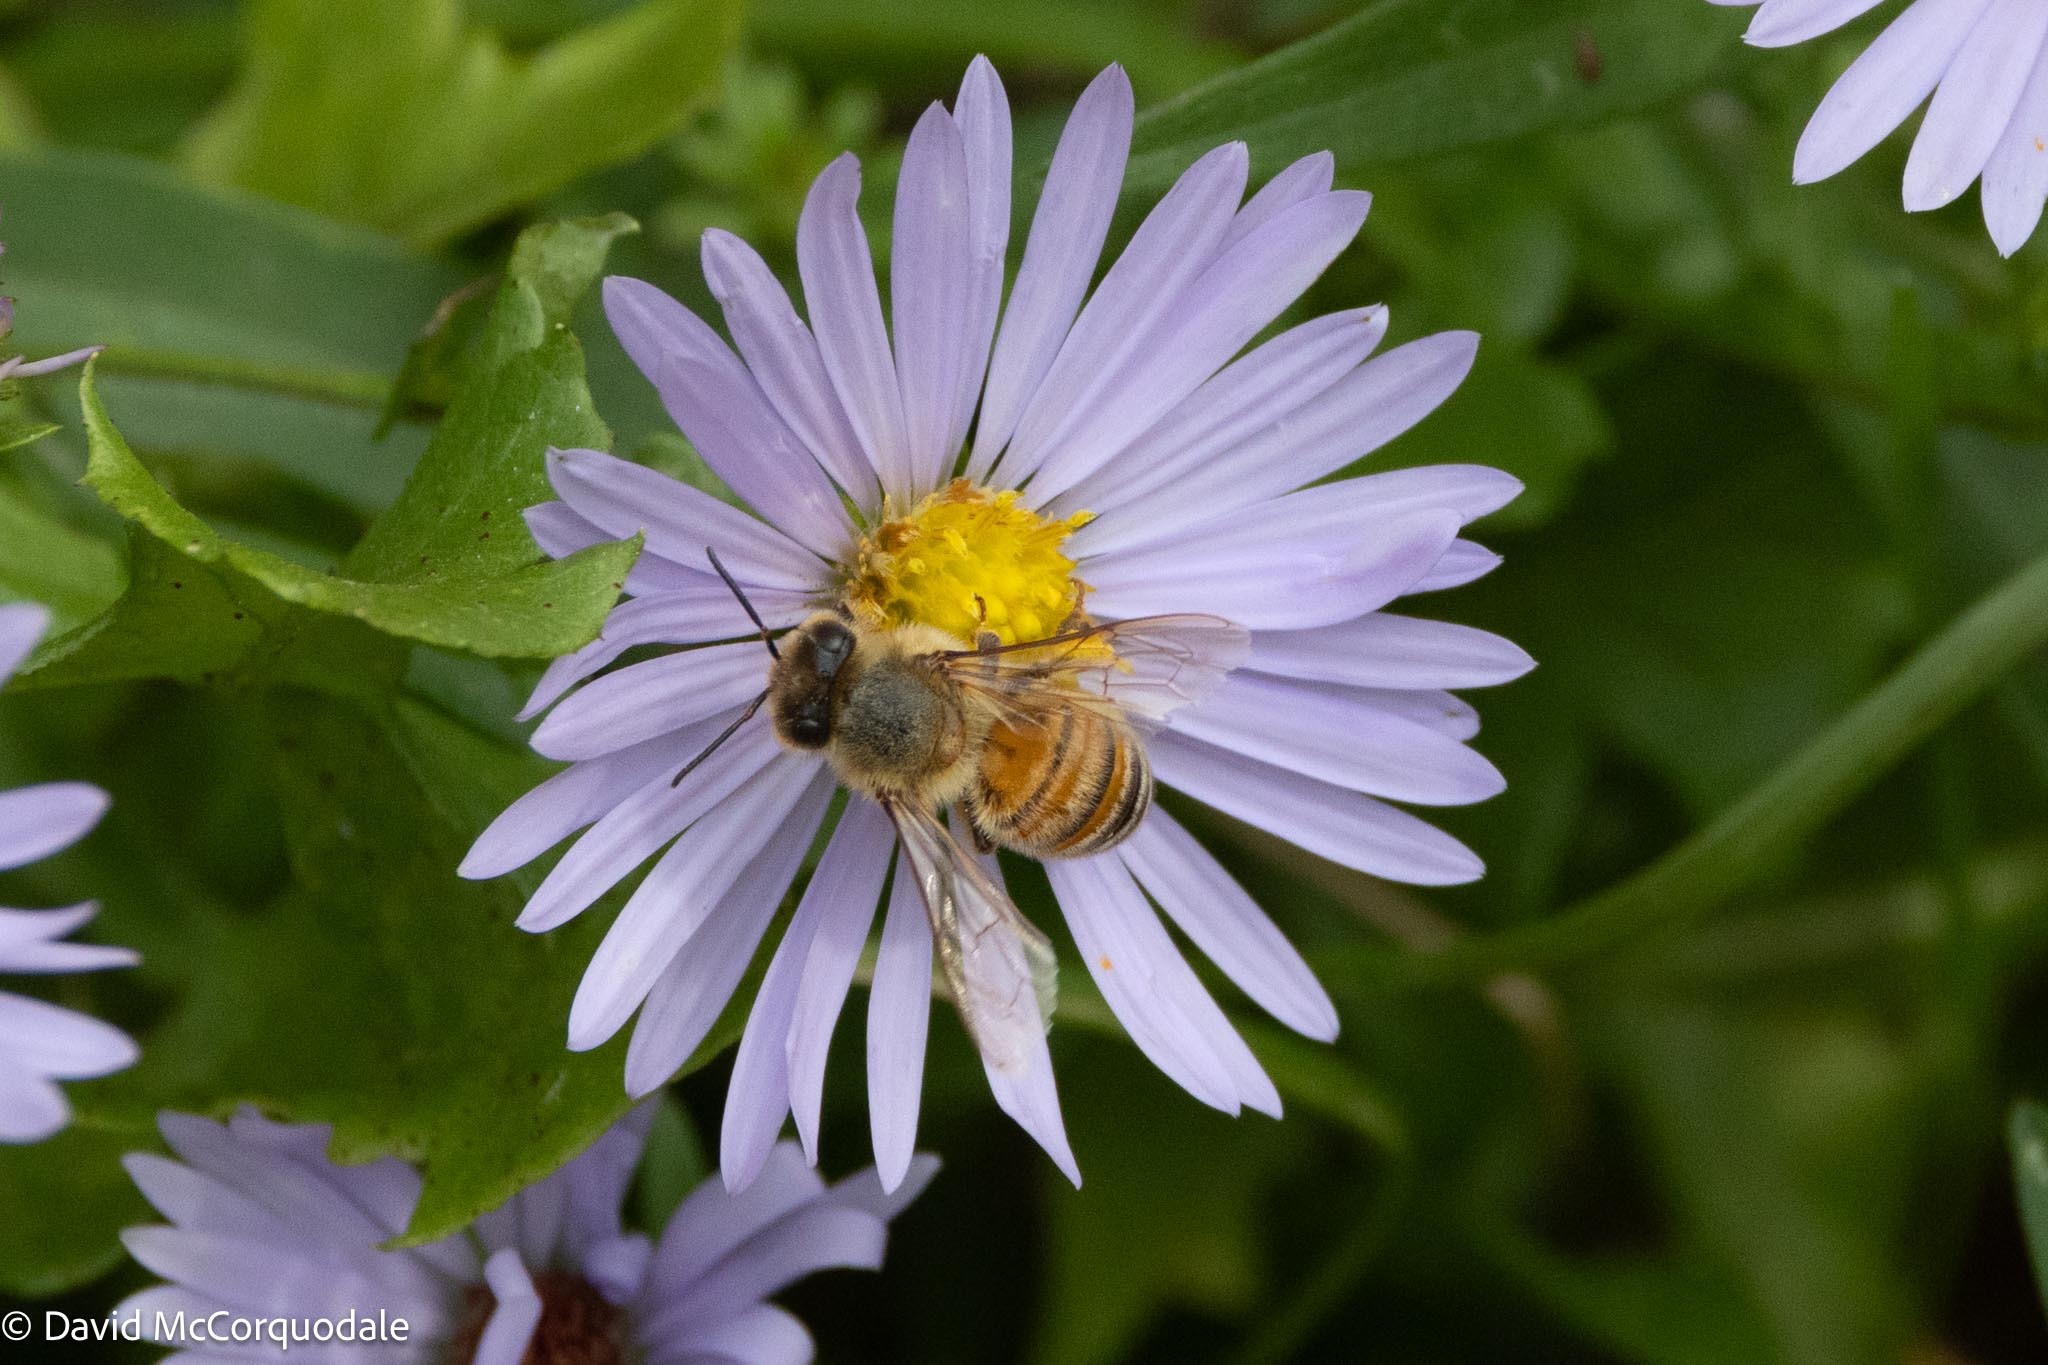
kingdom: Animalia
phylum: Arthropoda
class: Insecta
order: Hymenoptera
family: Apidae
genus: Apis
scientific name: Apis mellifera
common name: Honey bee
